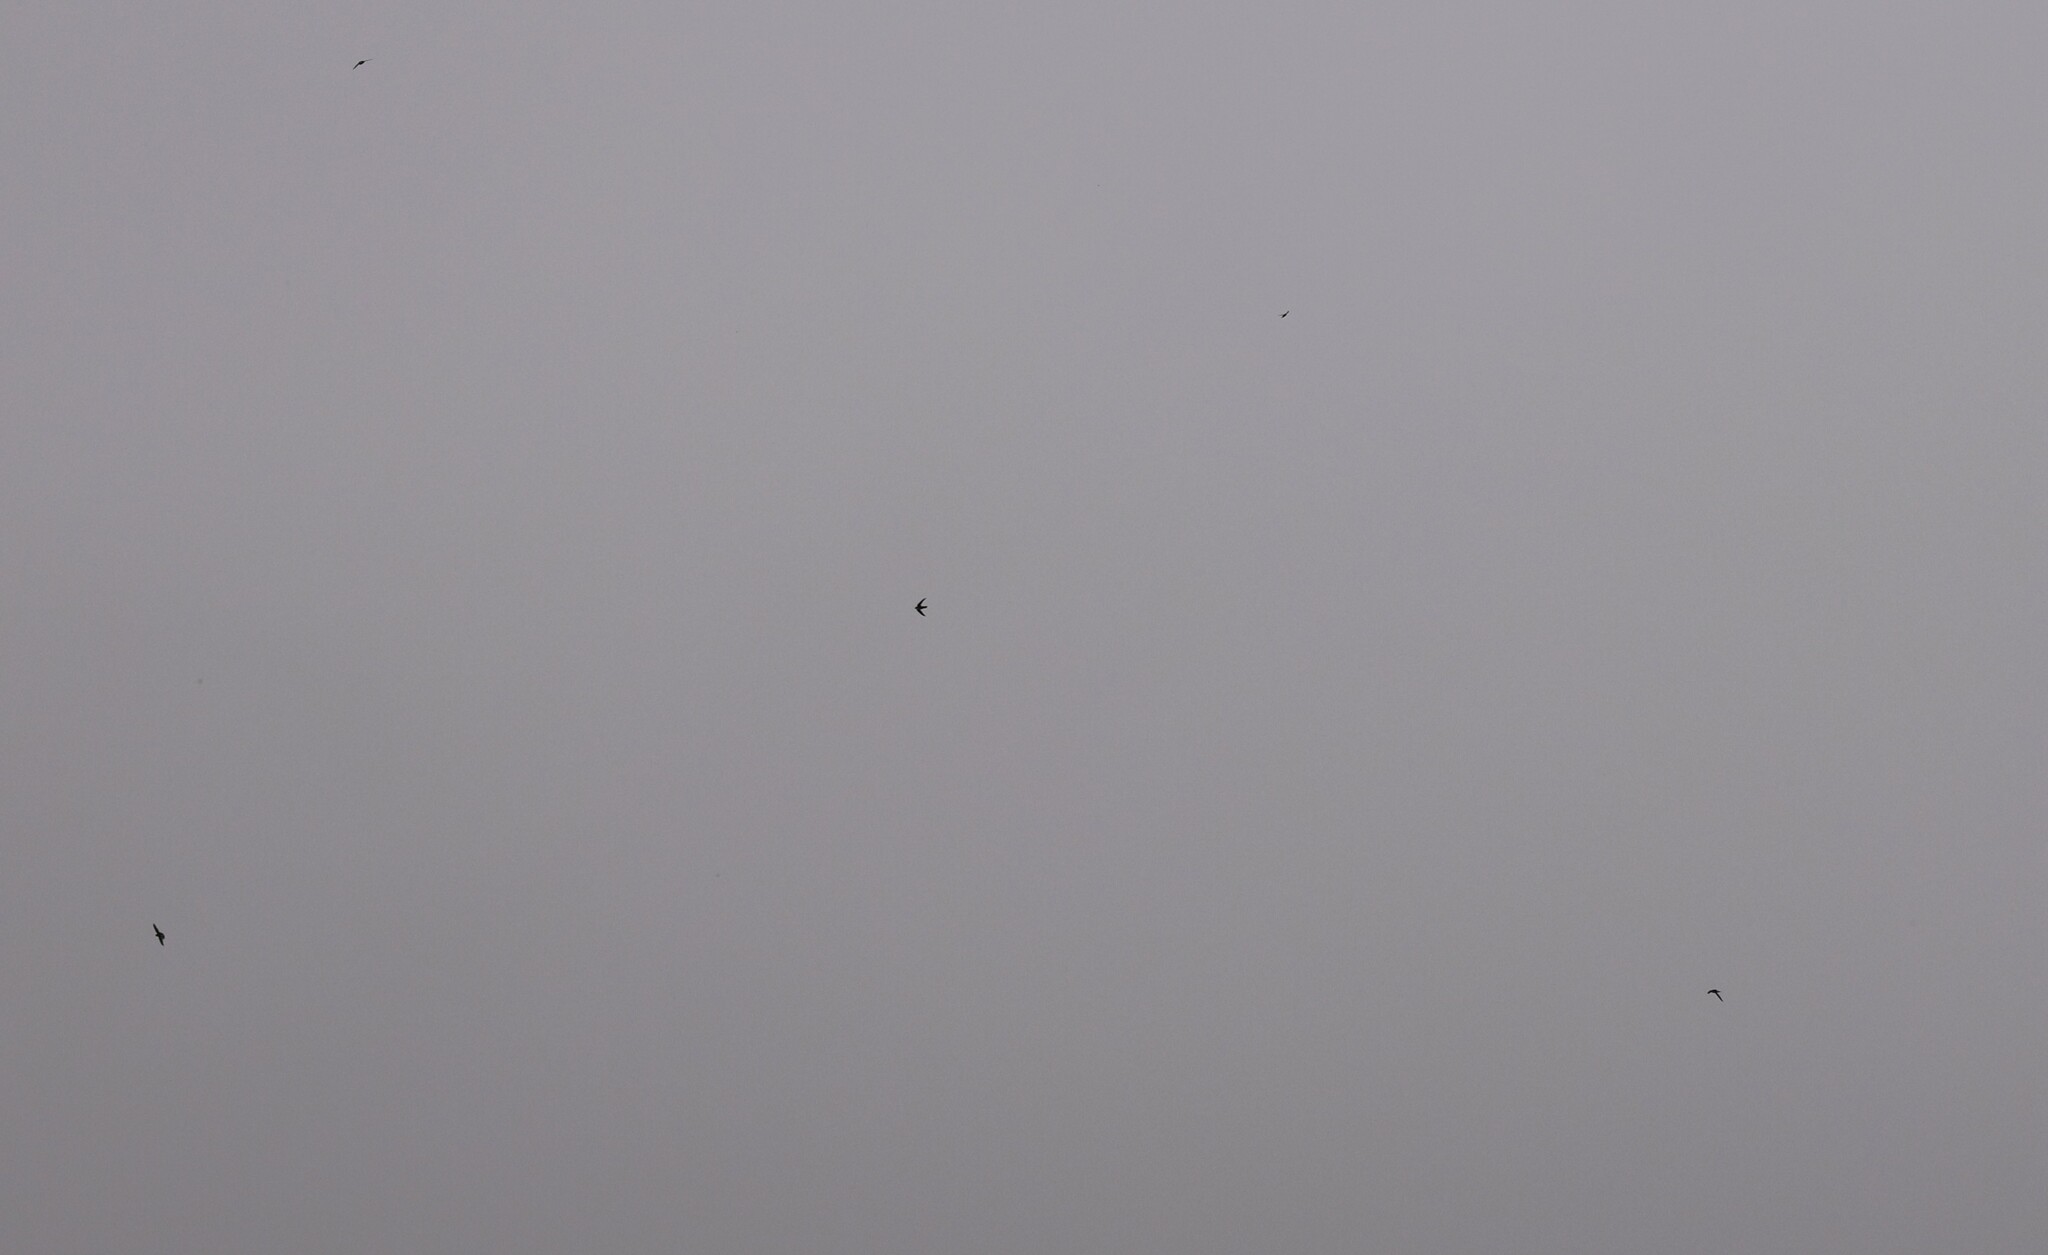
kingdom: Animalia
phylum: Chordata
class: Aves
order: Apodiformes
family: Apodidae
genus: Aeronautes
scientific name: Aeronautes saxatalis
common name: White-throated swift
